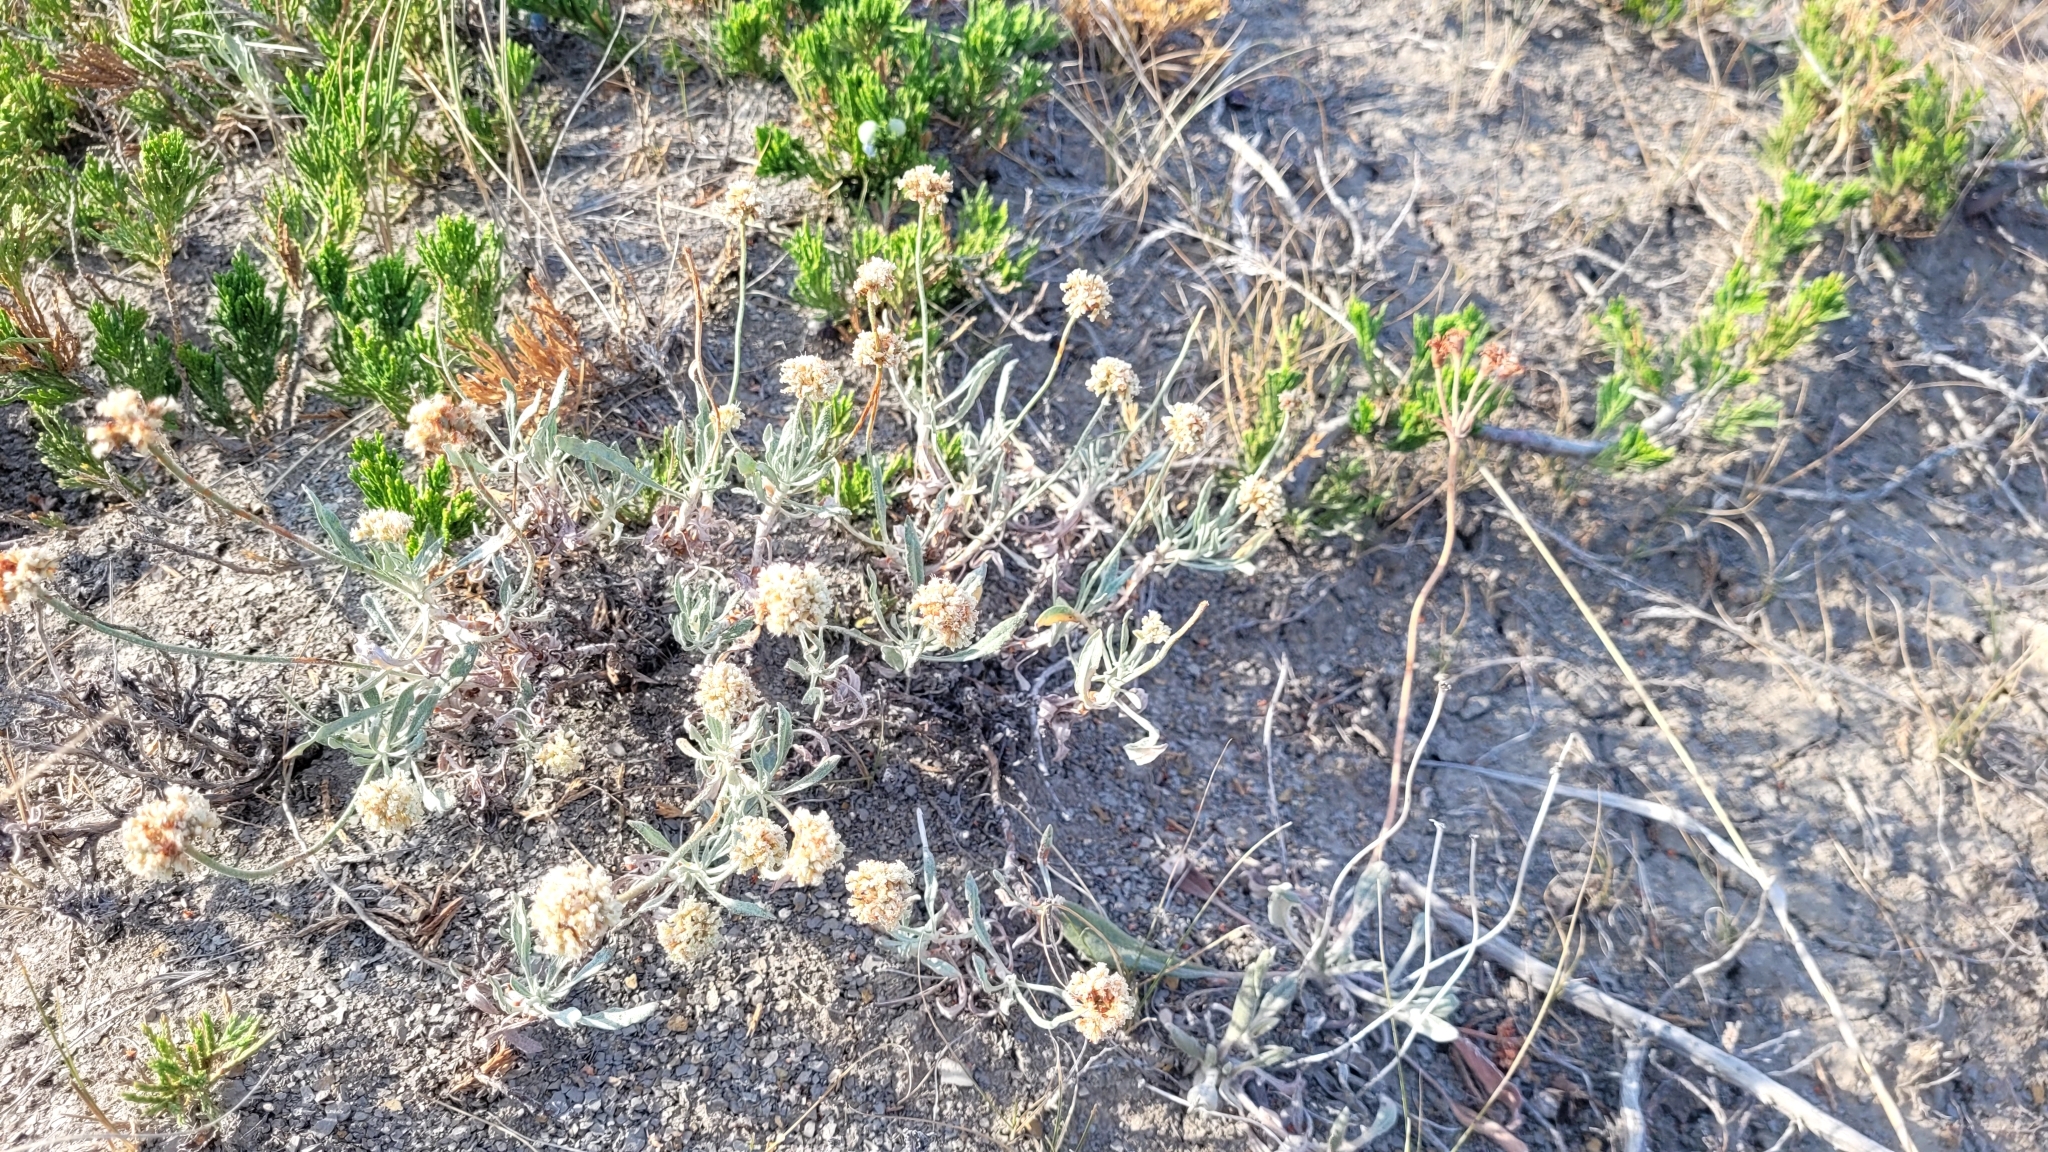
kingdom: Plantae
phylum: Tracheophyta
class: Magnoliopsida
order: Caryophyllales
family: Polygonaceae
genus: Eriogonum
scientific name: Eriogonum pauciflorum
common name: Few-flower wild buckwheat
